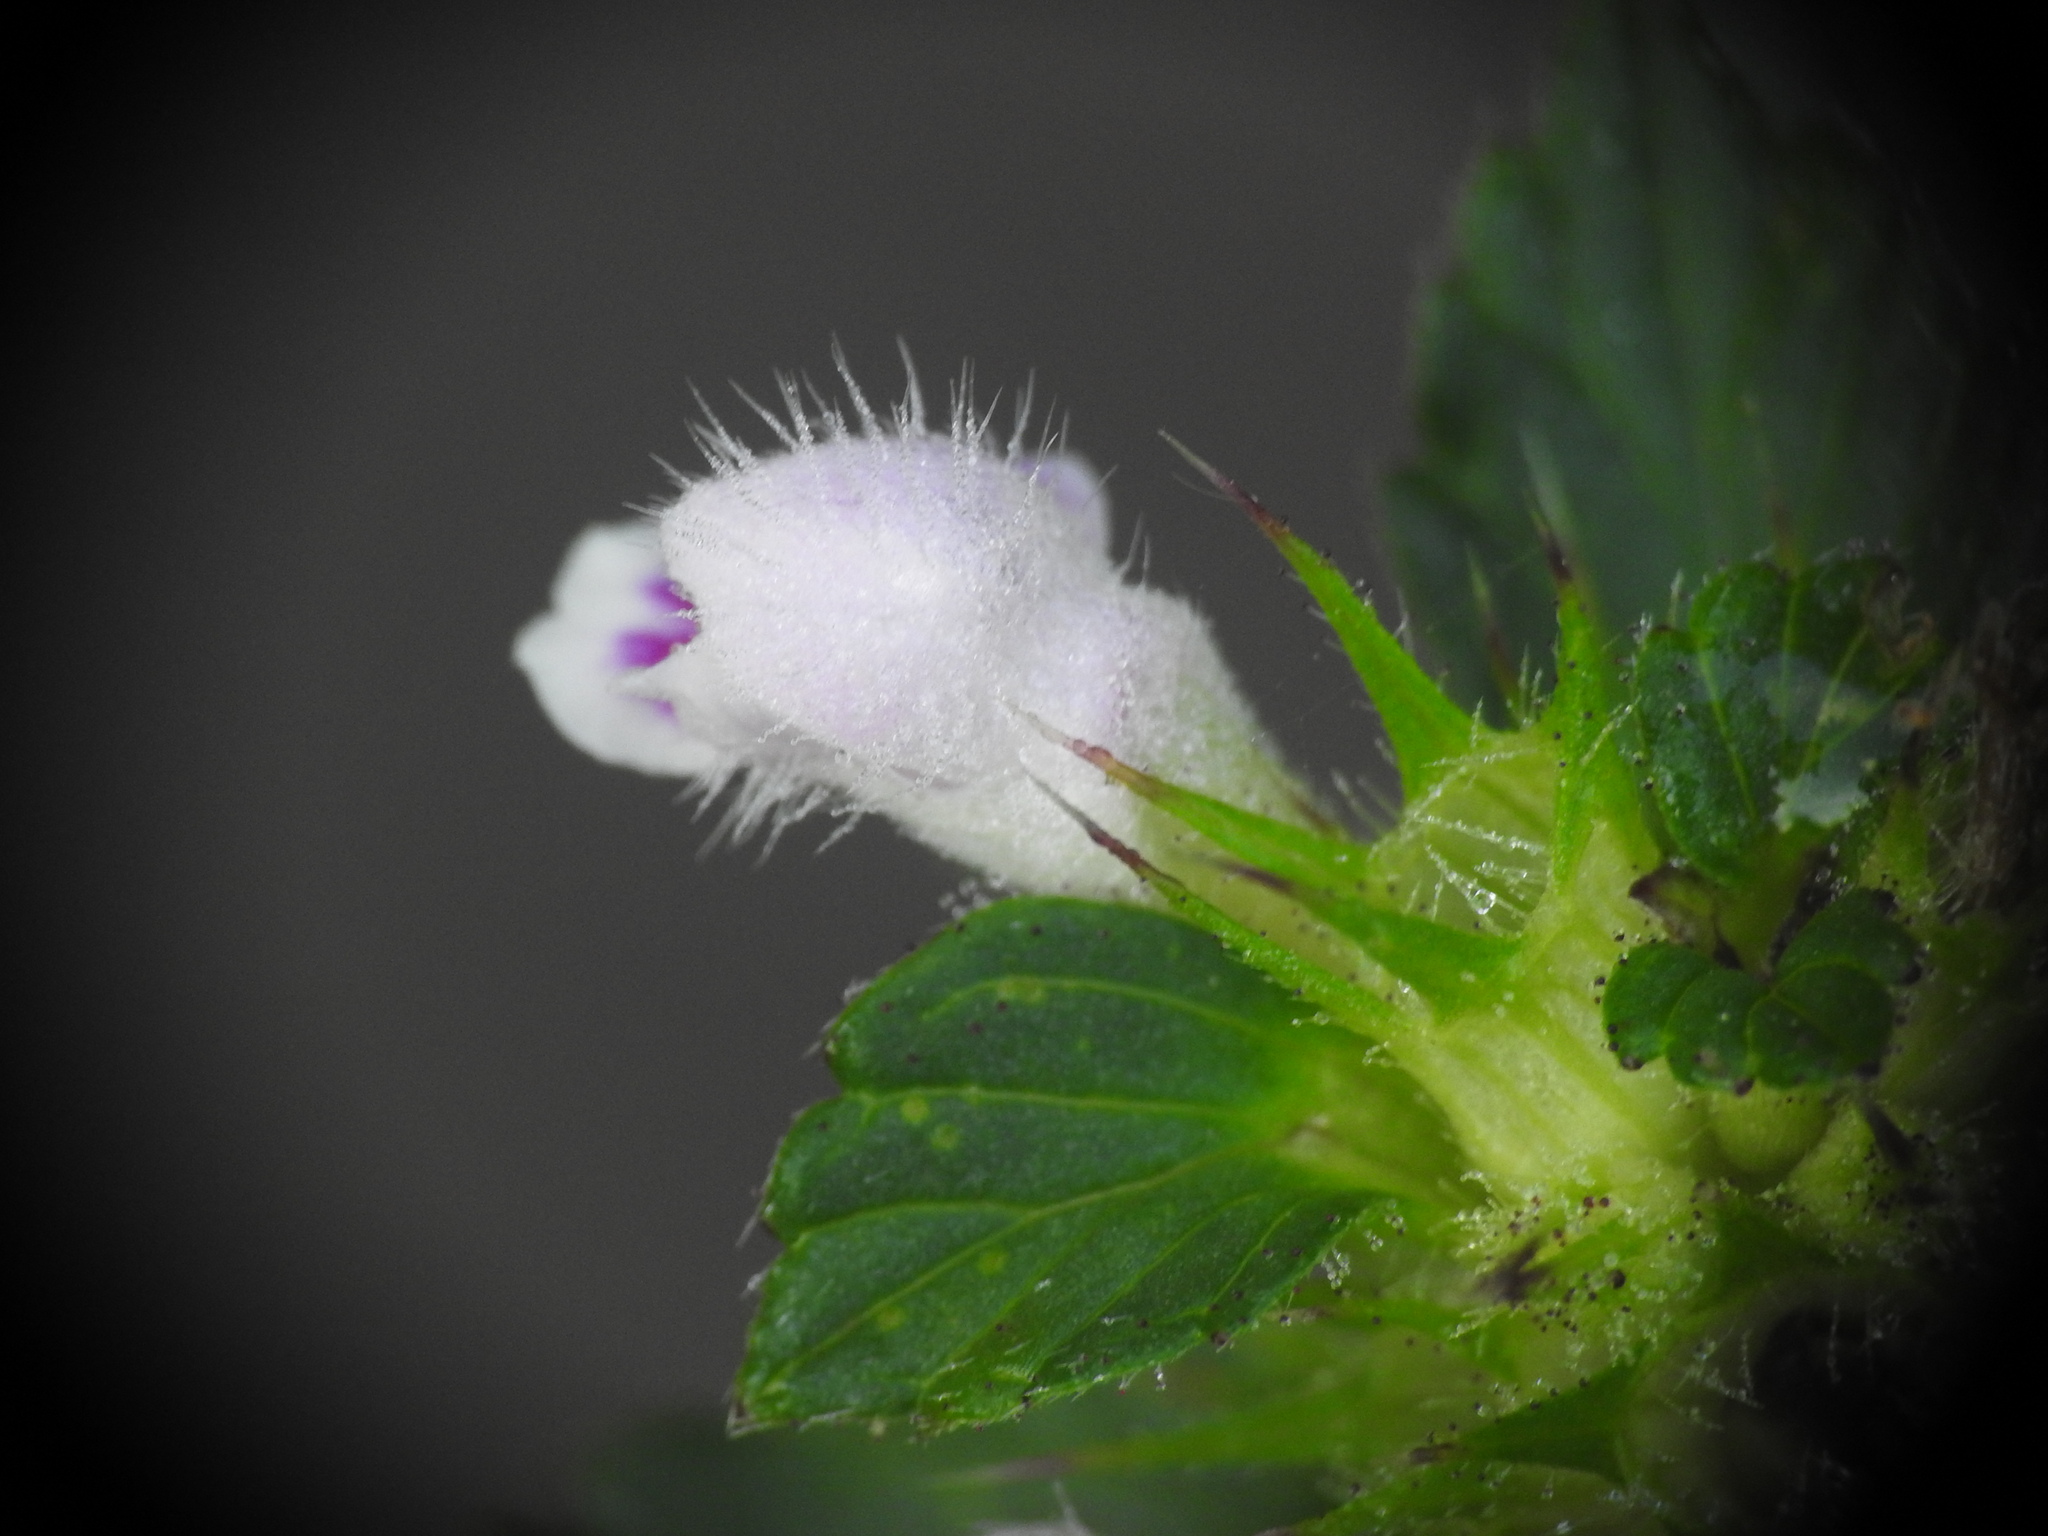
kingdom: Plantae
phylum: Tracheophyta
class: Magnoliopsida
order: Lamiales
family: Lamiaceae
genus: Galeopsis
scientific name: Galeopsis tetrahit
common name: Common hemp-nettle
